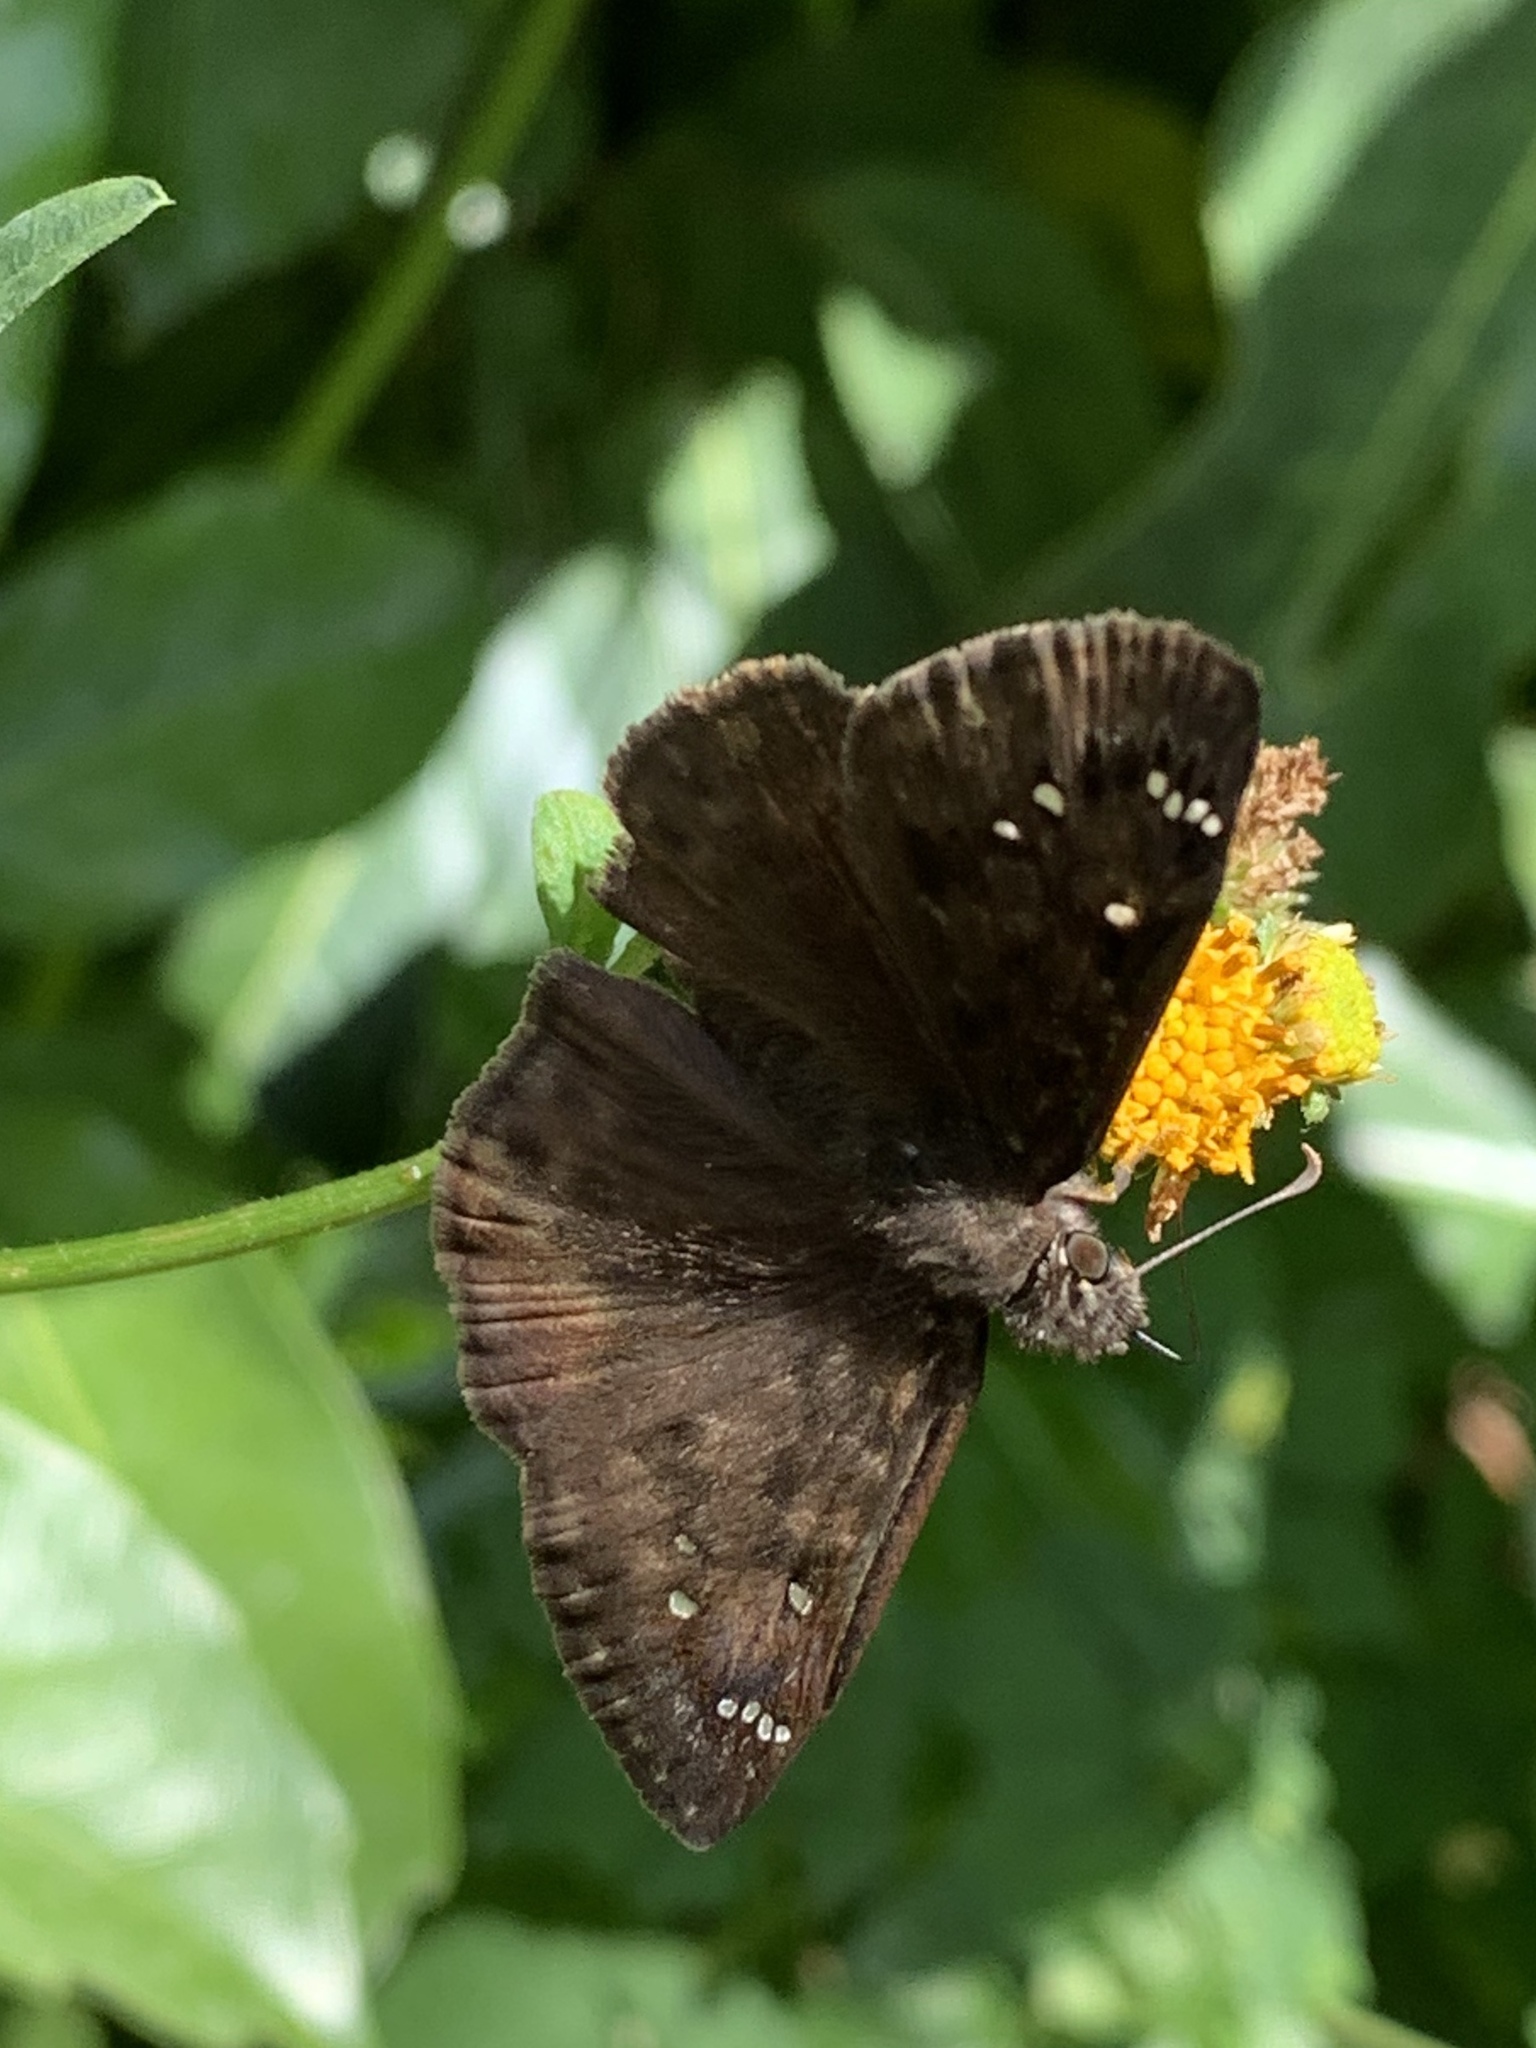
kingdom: Animalia
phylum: Arthropoda
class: Insecta
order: Lepidoptera
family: Hesperiidae
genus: Erynnis
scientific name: Erynnis horatius
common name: Horace's duskywing
